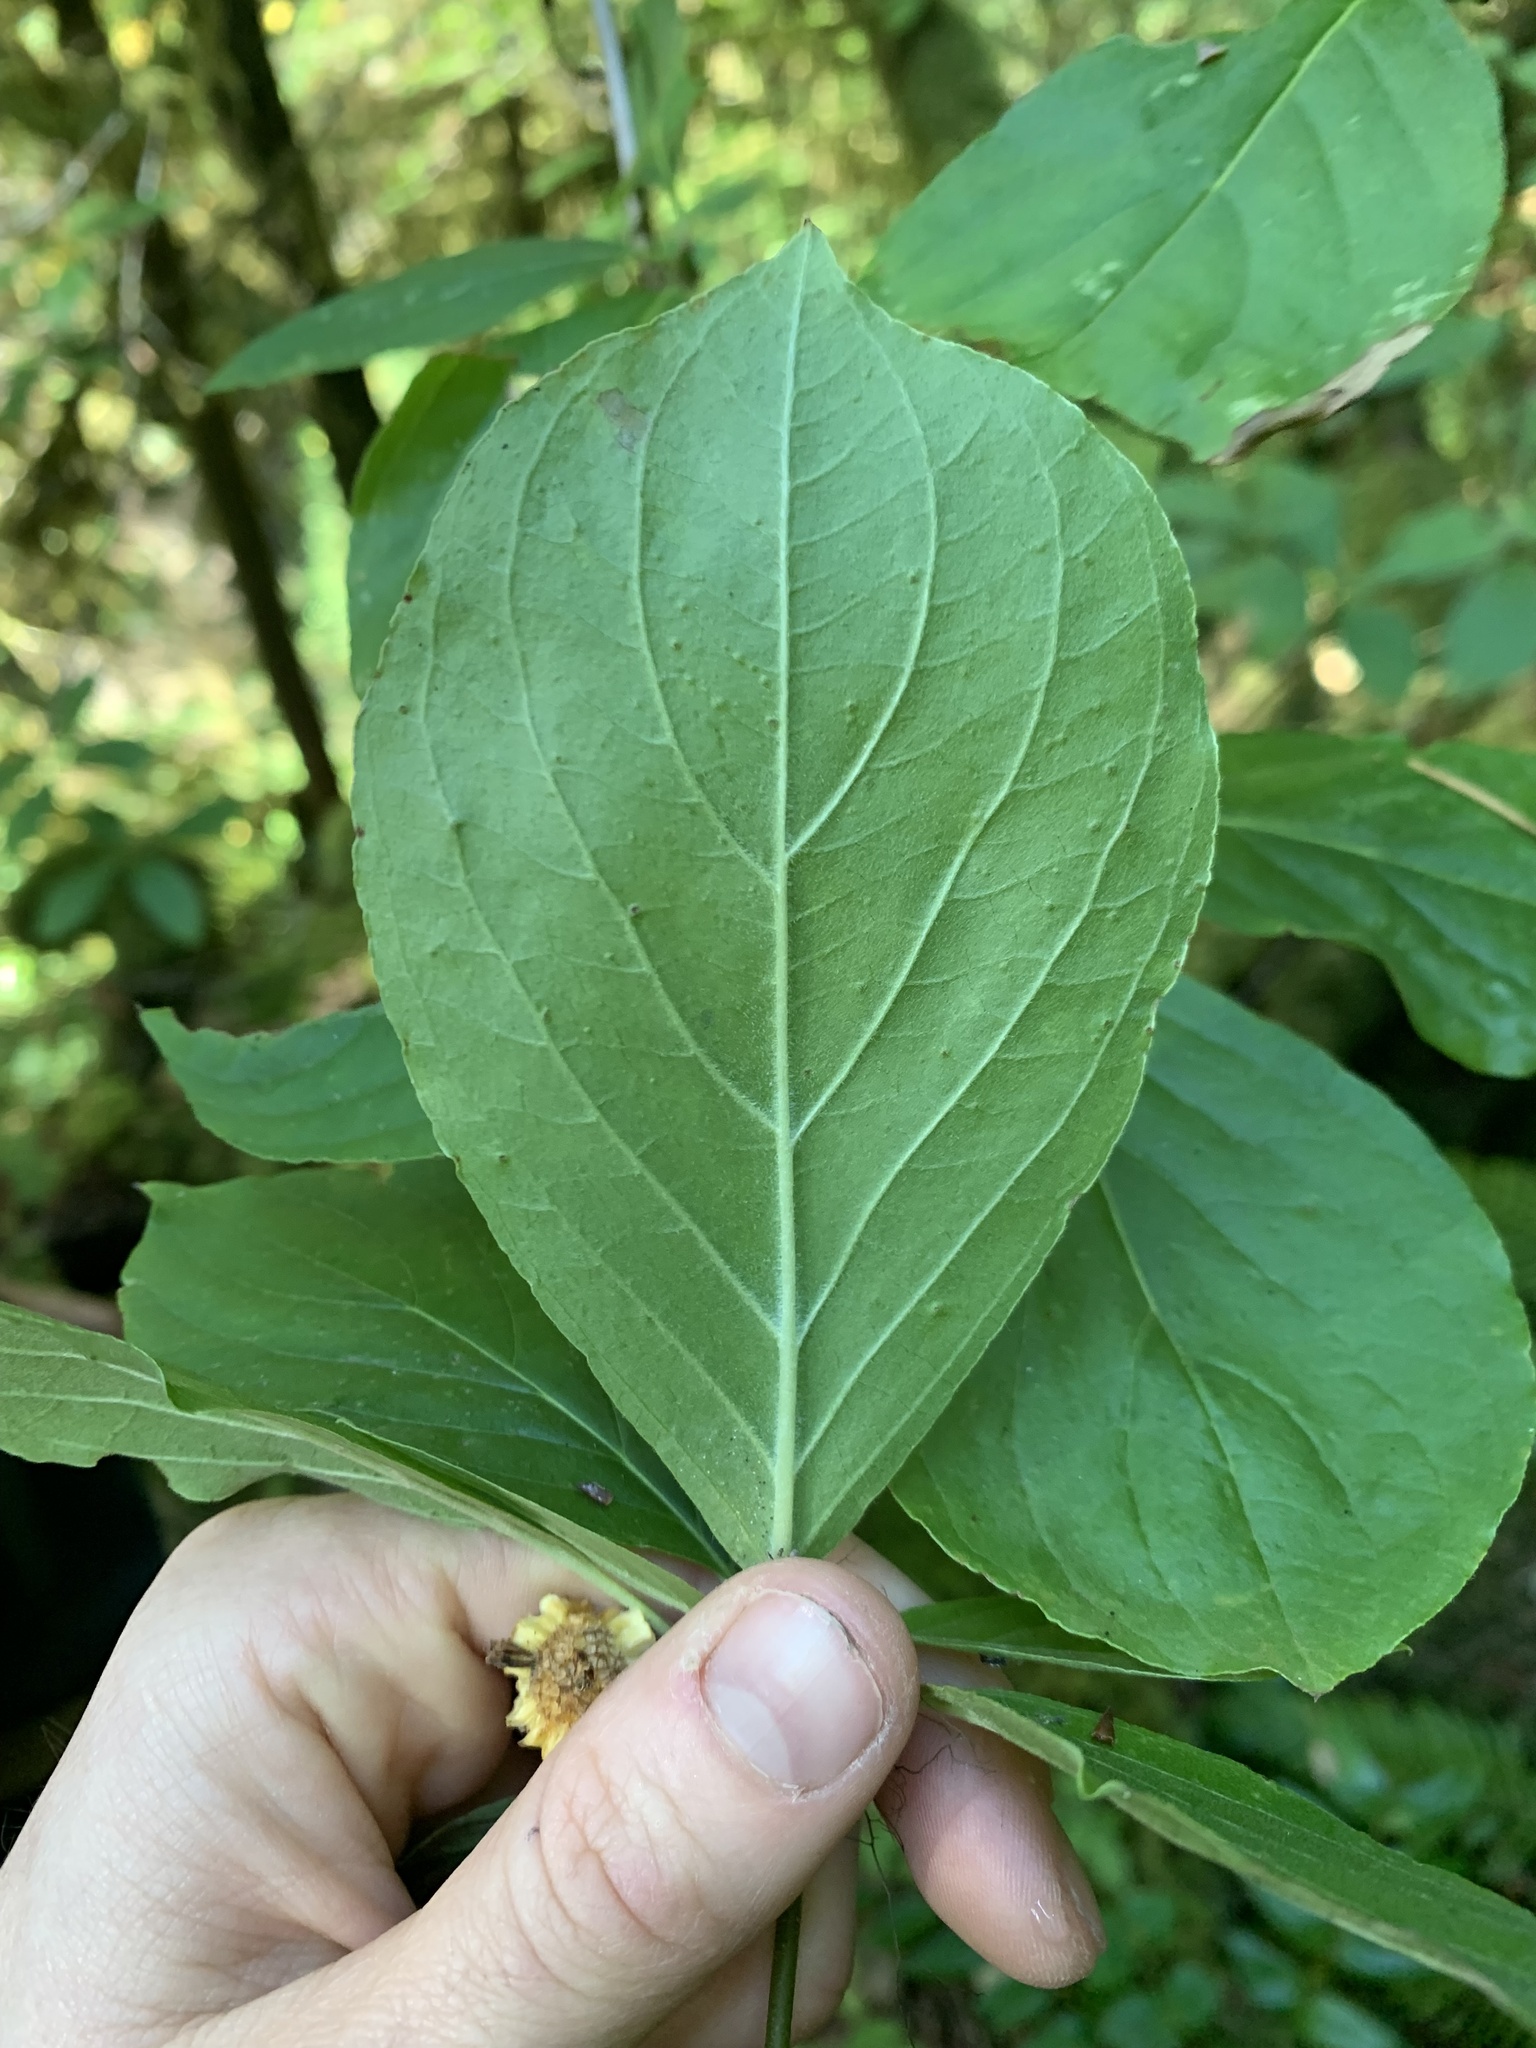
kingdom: Plantae
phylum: Tracheophyta
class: Magnoliopsida
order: Cornales
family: Cornaceae
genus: Cornus
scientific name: Cornus nuttallii
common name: Pacific dogwood
